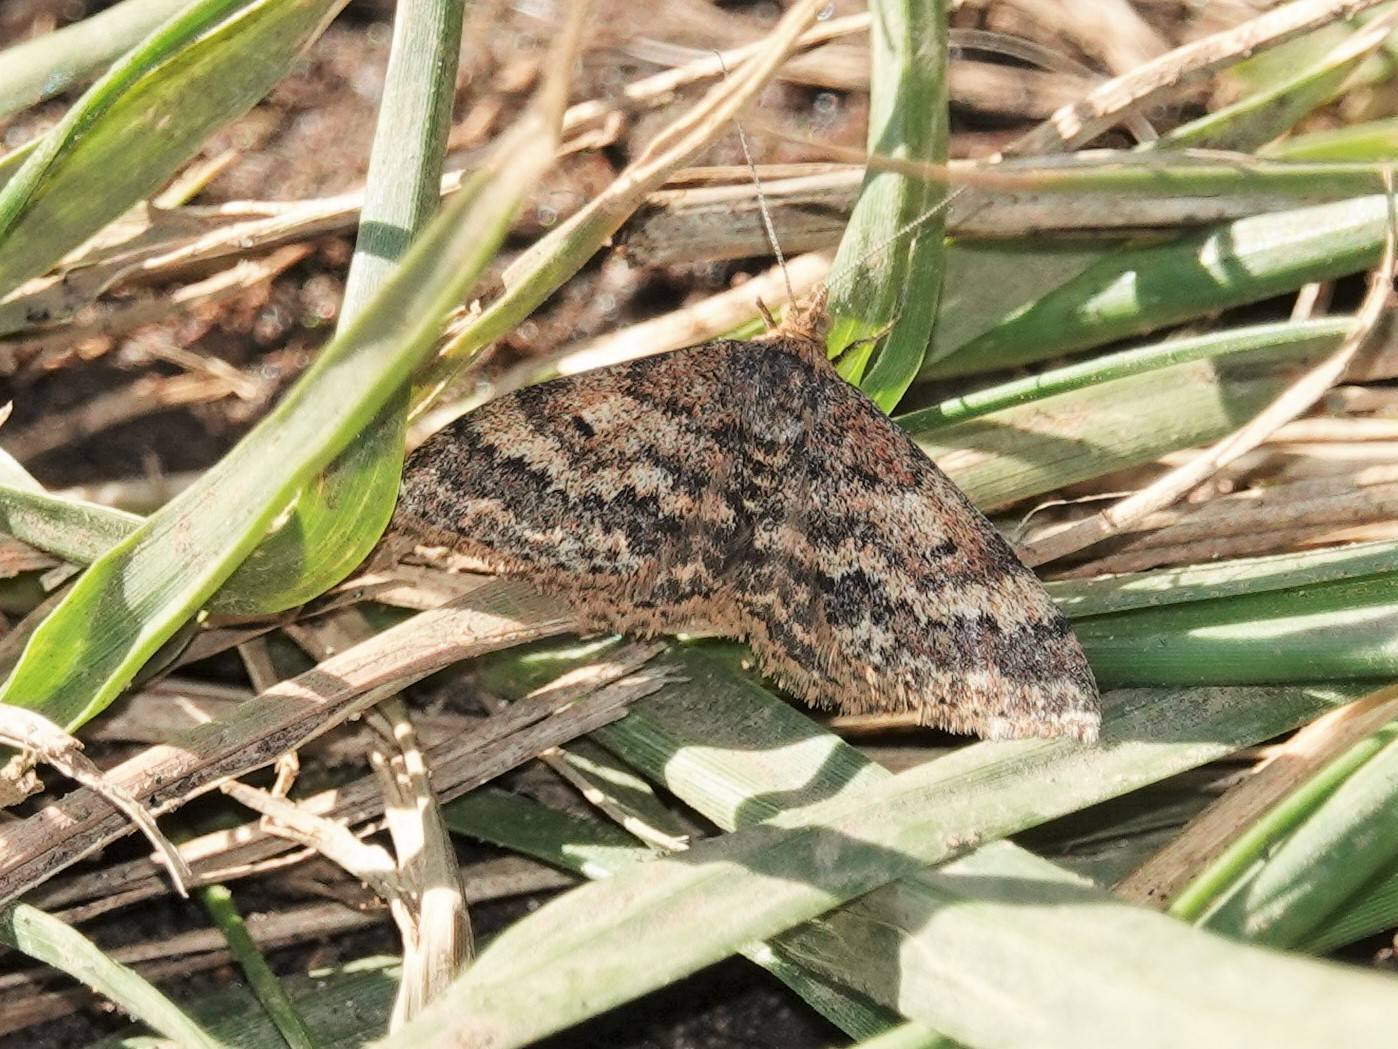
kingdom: Animalia
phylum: Arthropoda
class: Insecta
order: Lepidoptera
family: Geometridae
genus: Scopula
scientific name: Scopula rubraria
